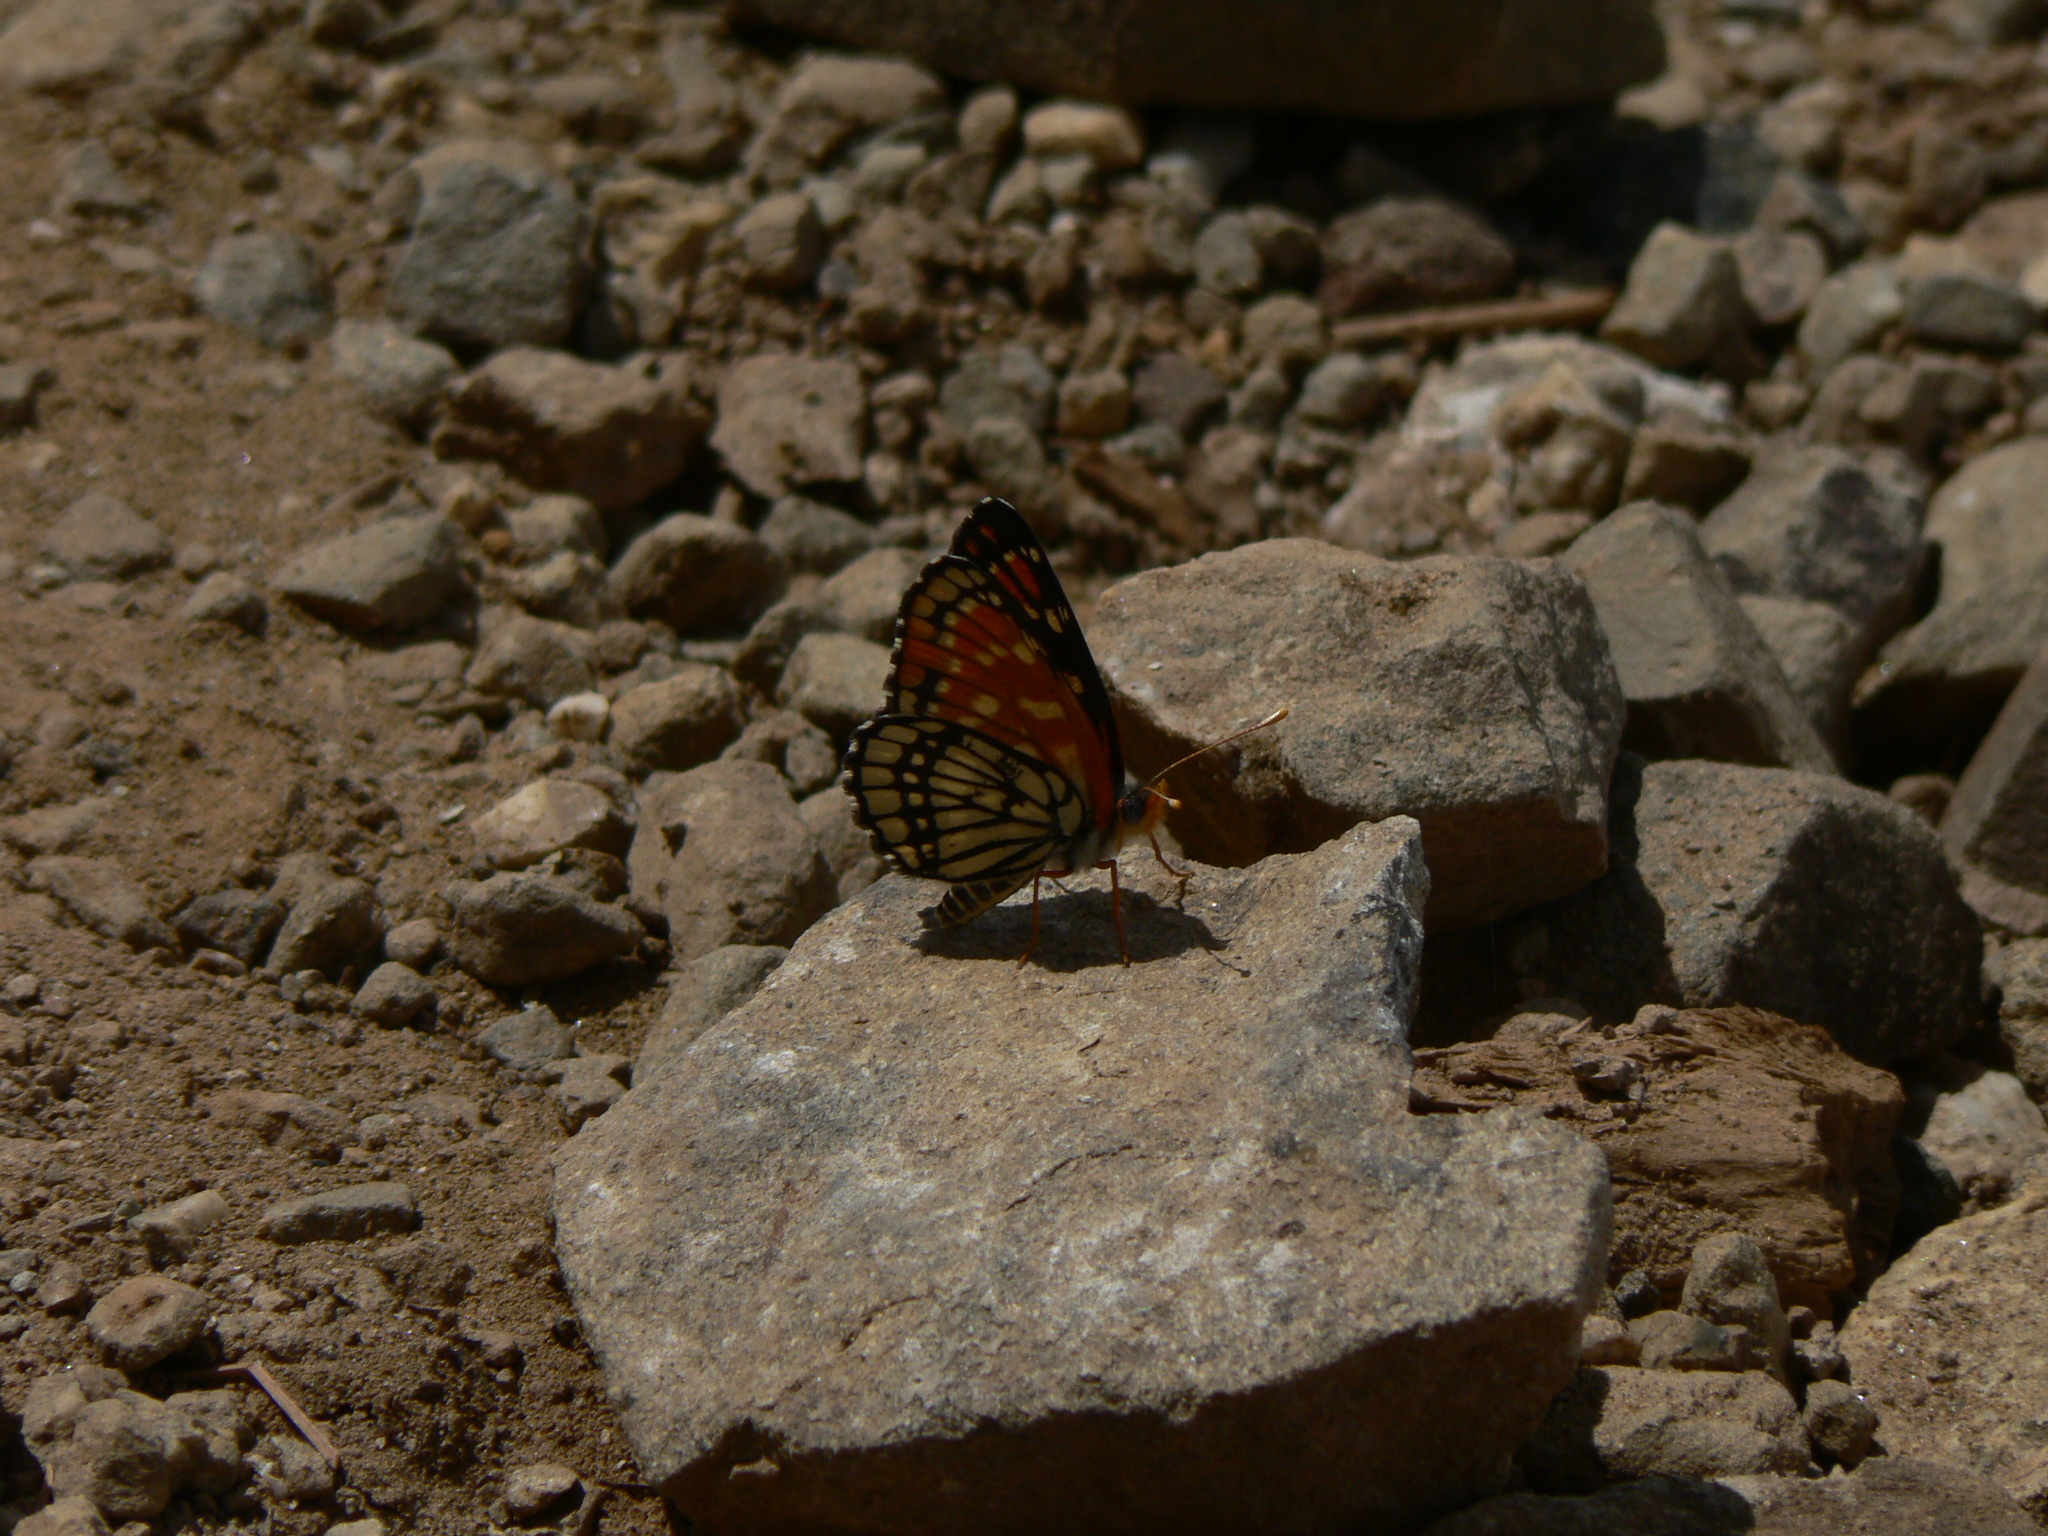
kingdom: Animalia
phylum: Arthropoda
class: Insecta
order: Lepidoptera
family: Nymphalidae
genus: Thessalia
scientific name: Thessalia leanira
